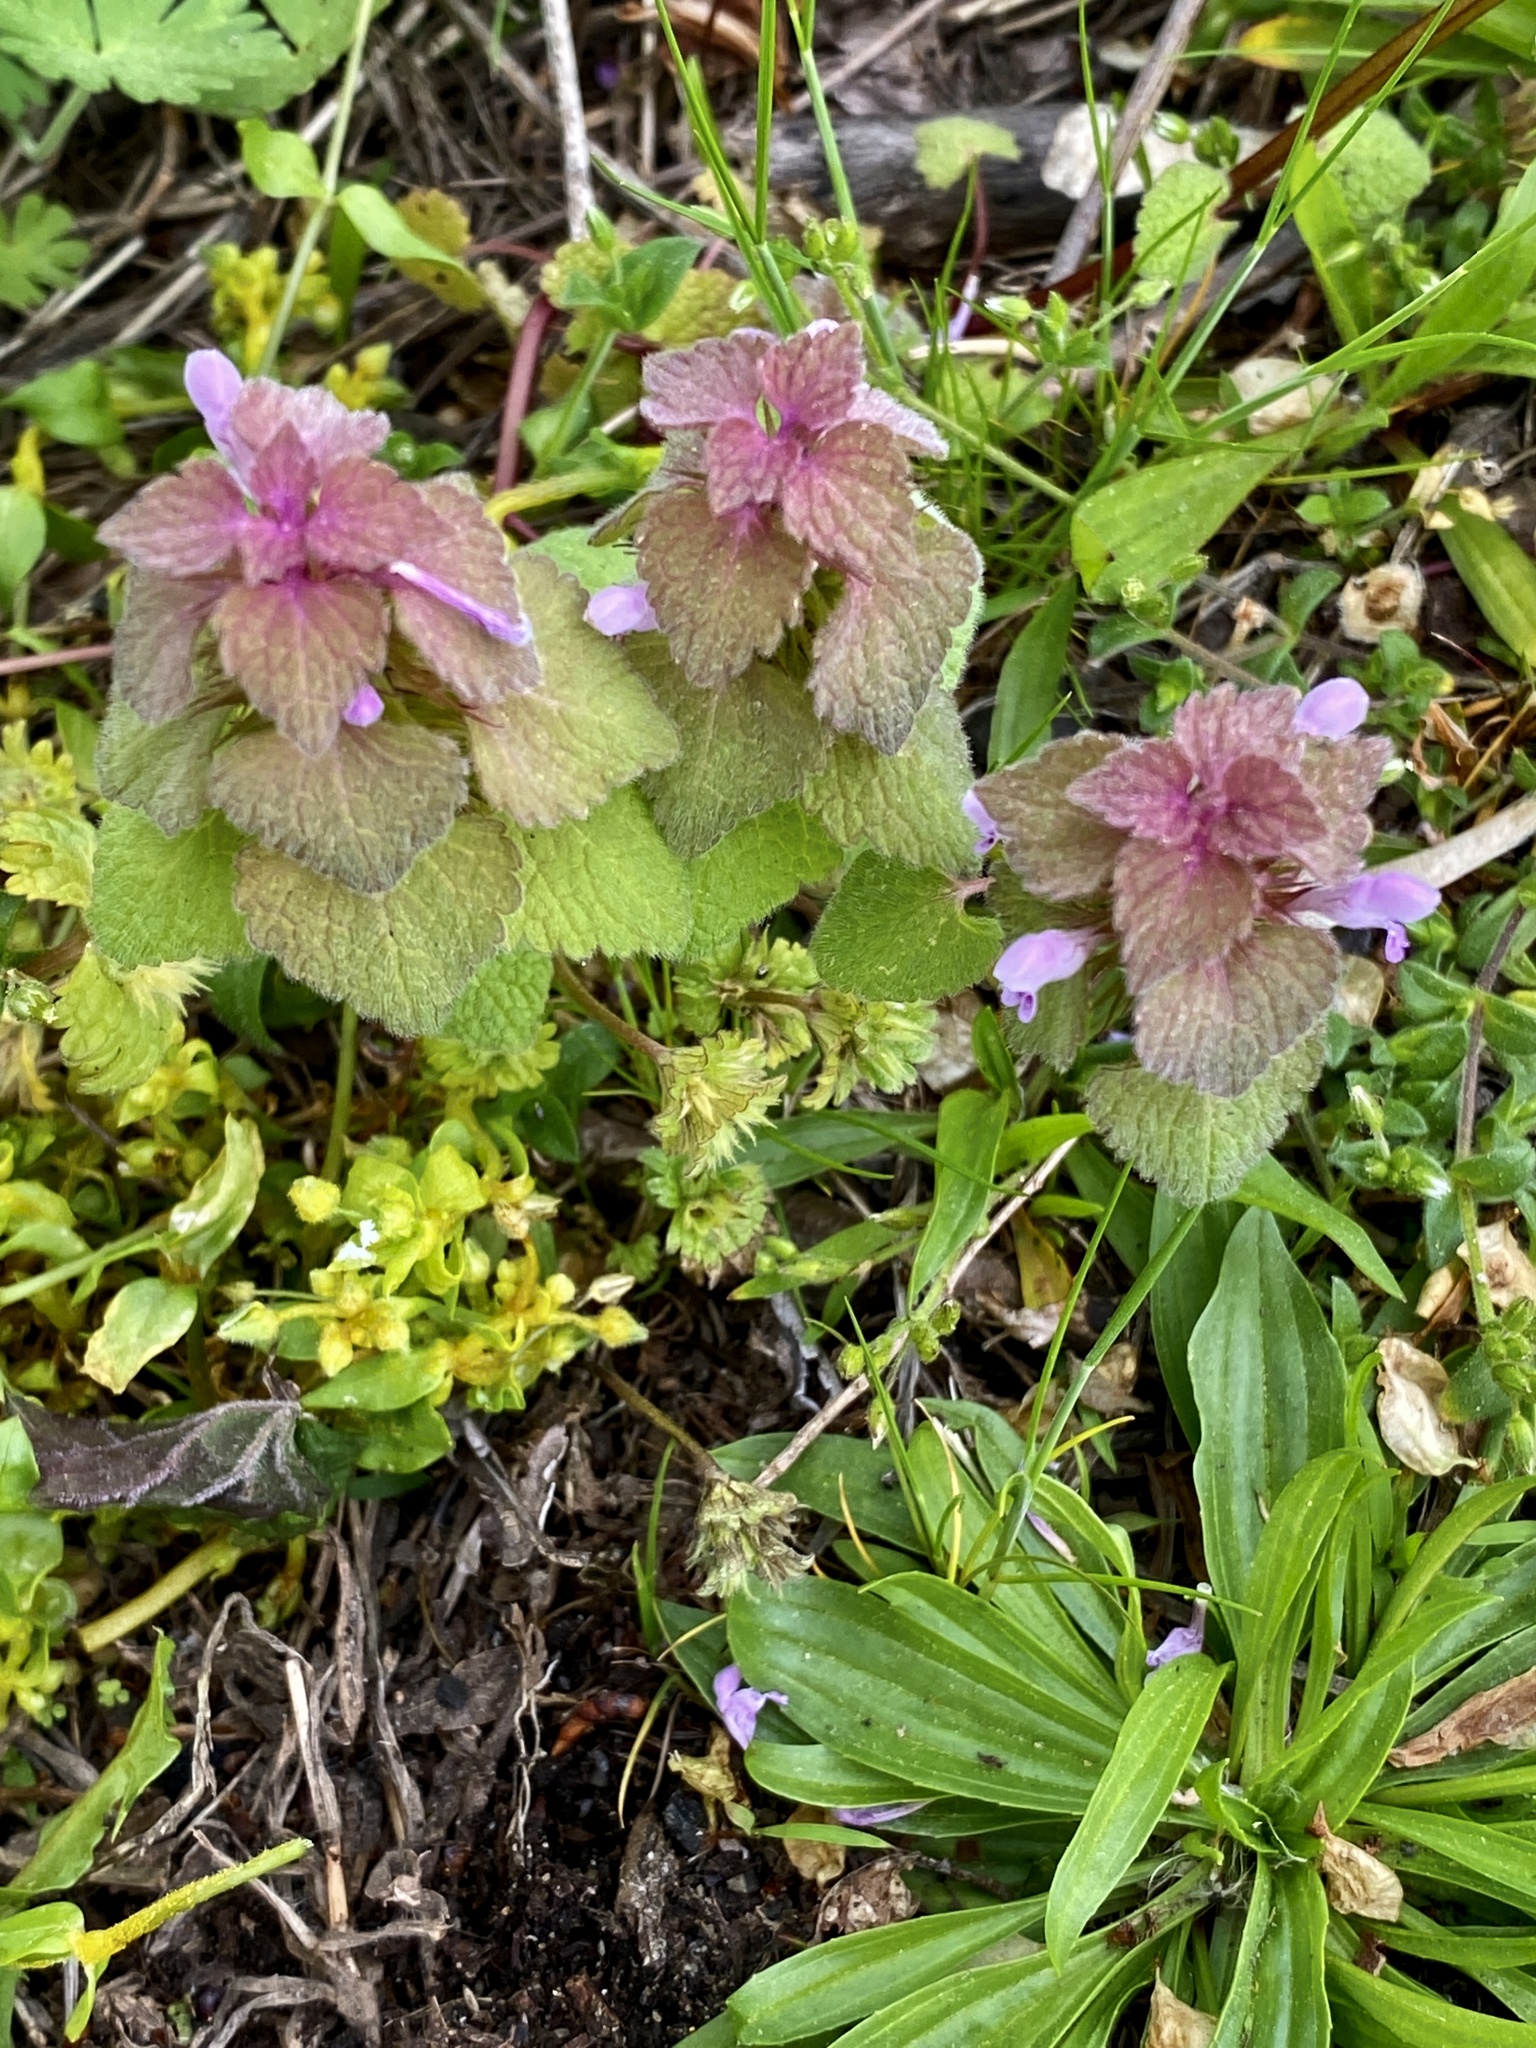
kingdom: Plantae
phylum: Tracheophyta
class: Magnoliopsida
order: Lamiales
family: Lamiaceae
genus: Lamium
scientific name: Lamium purpureum
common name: Red dead-nettle
